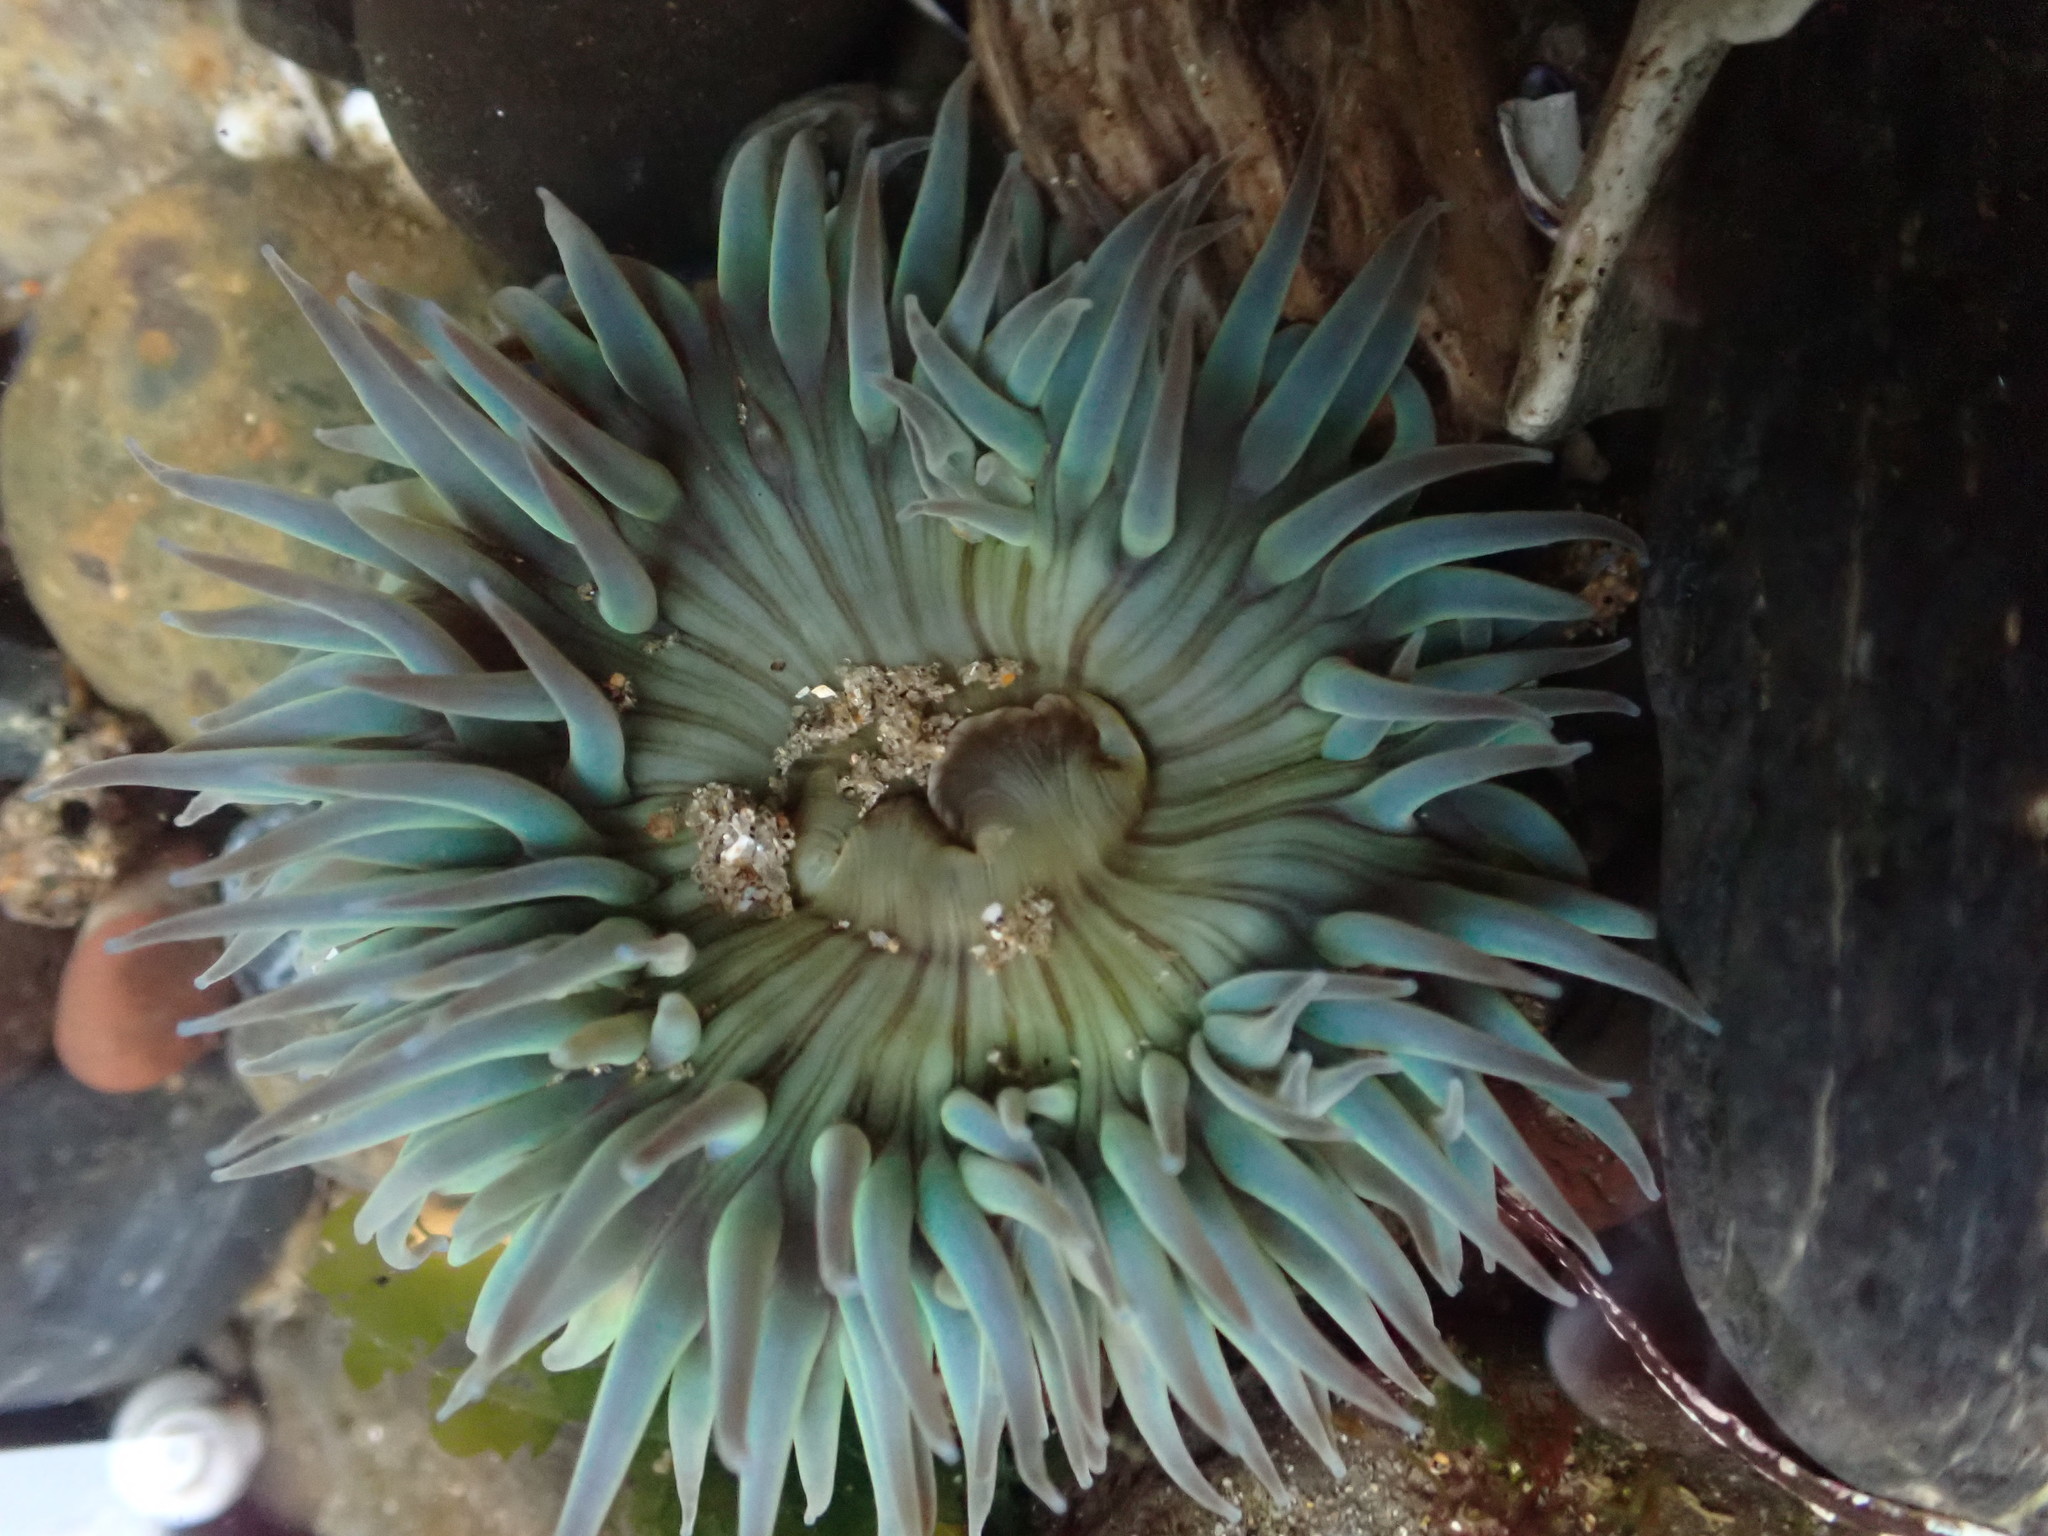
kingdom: Animalia
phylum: Cnidaria
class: Anthozoa
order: Actiniaria
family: Actiniidae
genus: Anthopleura
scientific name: Anthopleura sola
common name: Sun anemone
